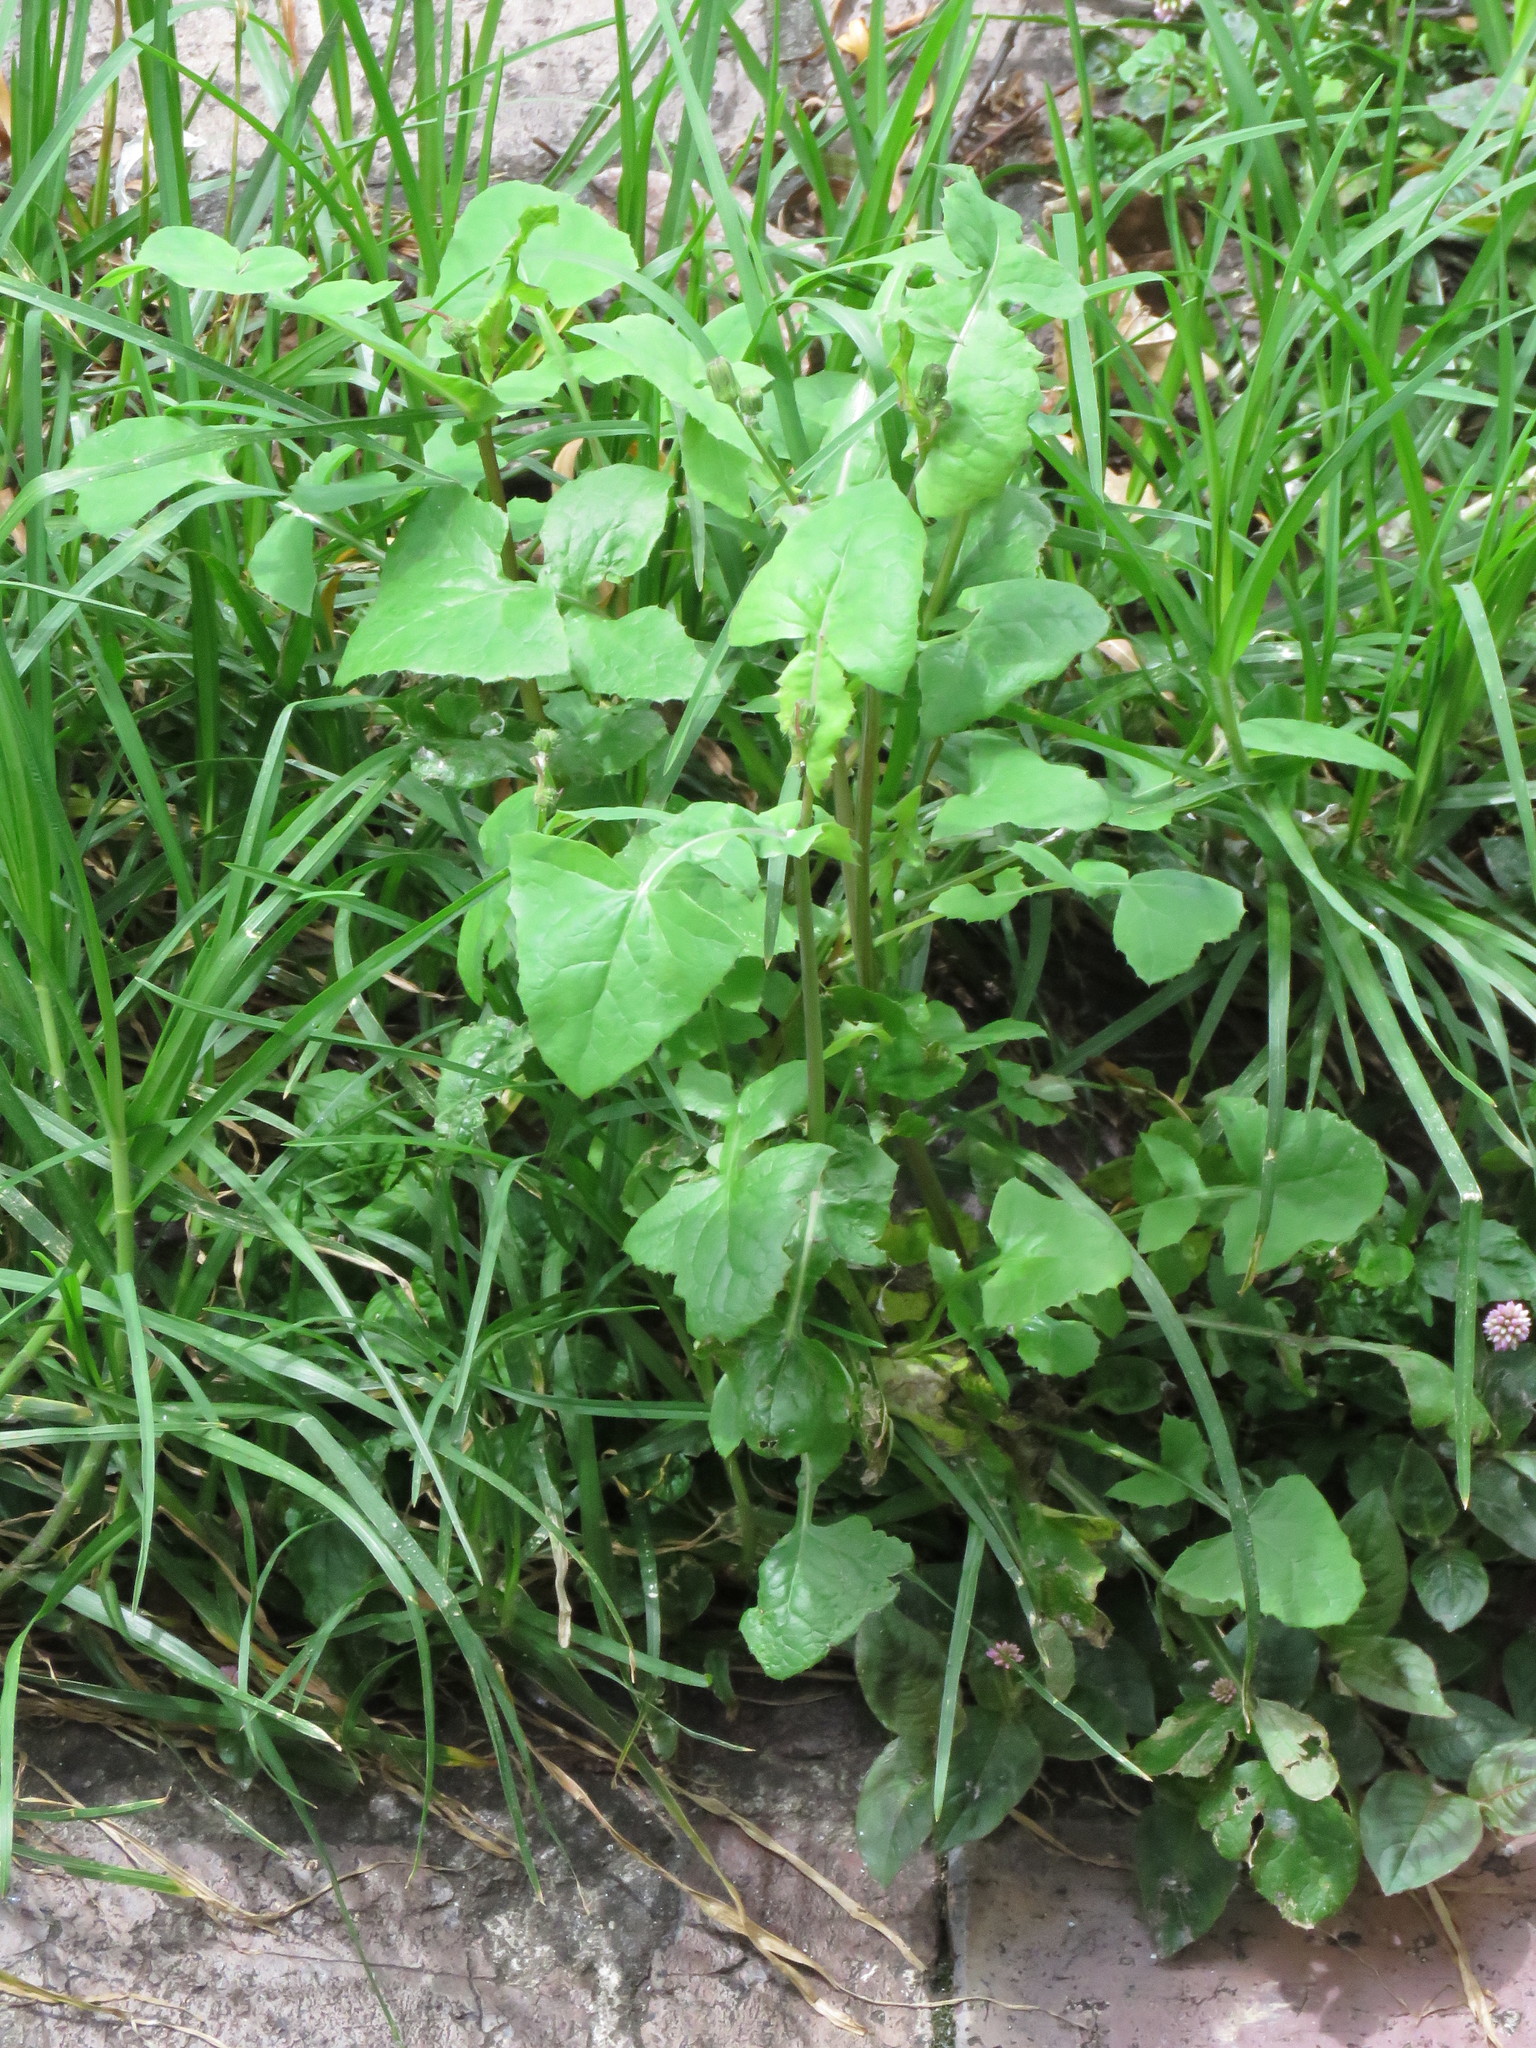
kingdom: Plantae
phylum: Tracheophyta
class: Magnoliopsida
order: Asterales
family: Asteraceae
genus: Sonchus
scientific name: Sonchus oleraceus
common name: Common sowthistle
